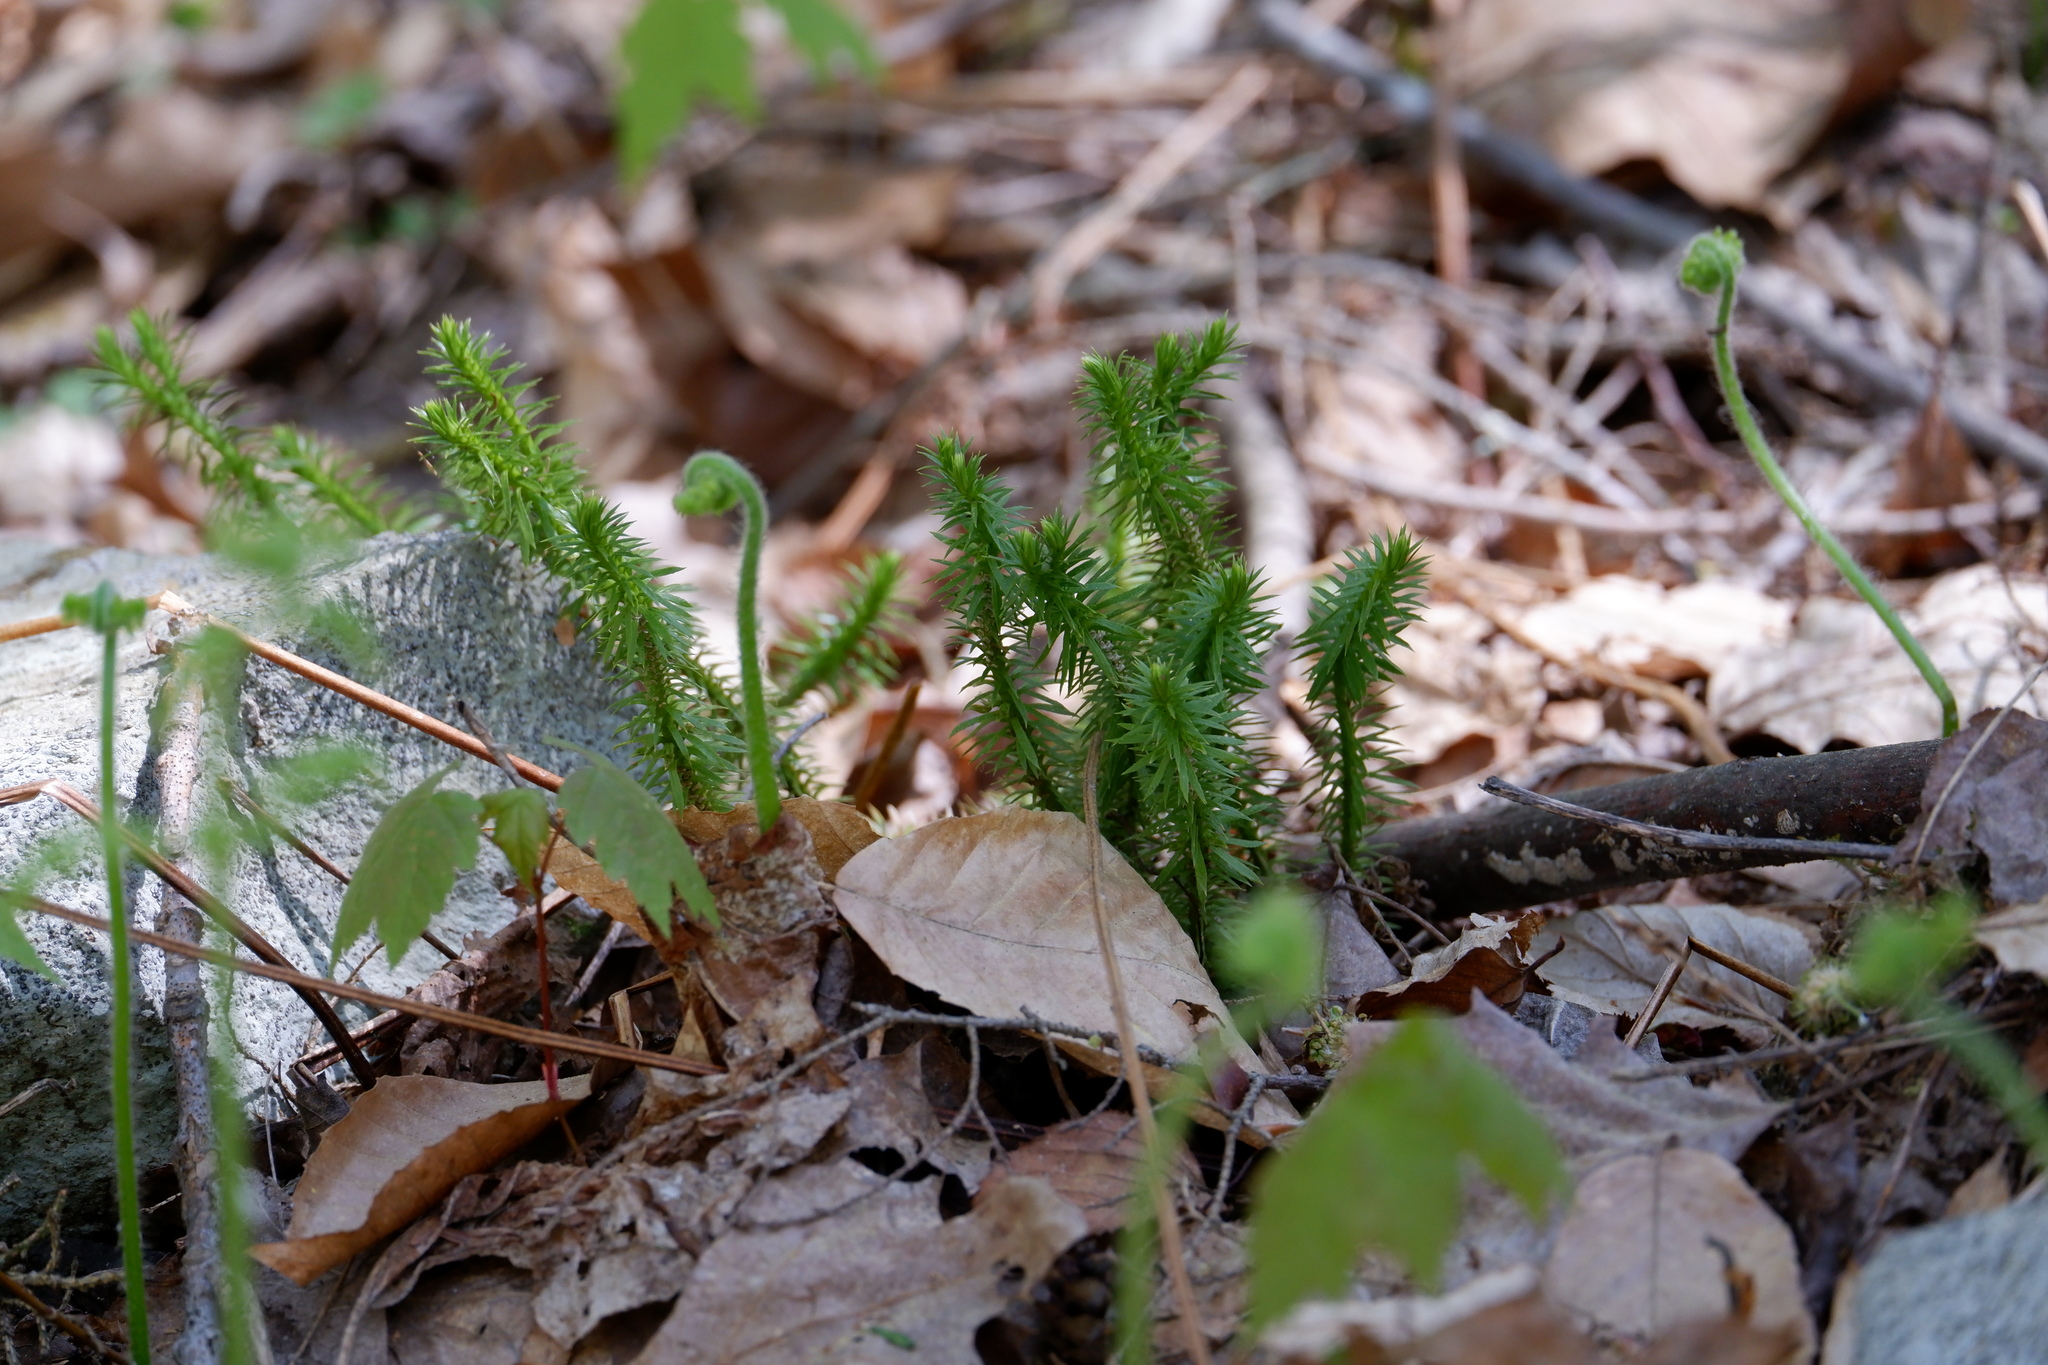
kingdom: Plantae
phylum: Tracheophyta
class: Lycopodiopsida
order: Lycopodiales
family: Lycopodiaceae
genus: Huperzia
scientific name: Huperzia lucidula
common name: Shining clubmoss
